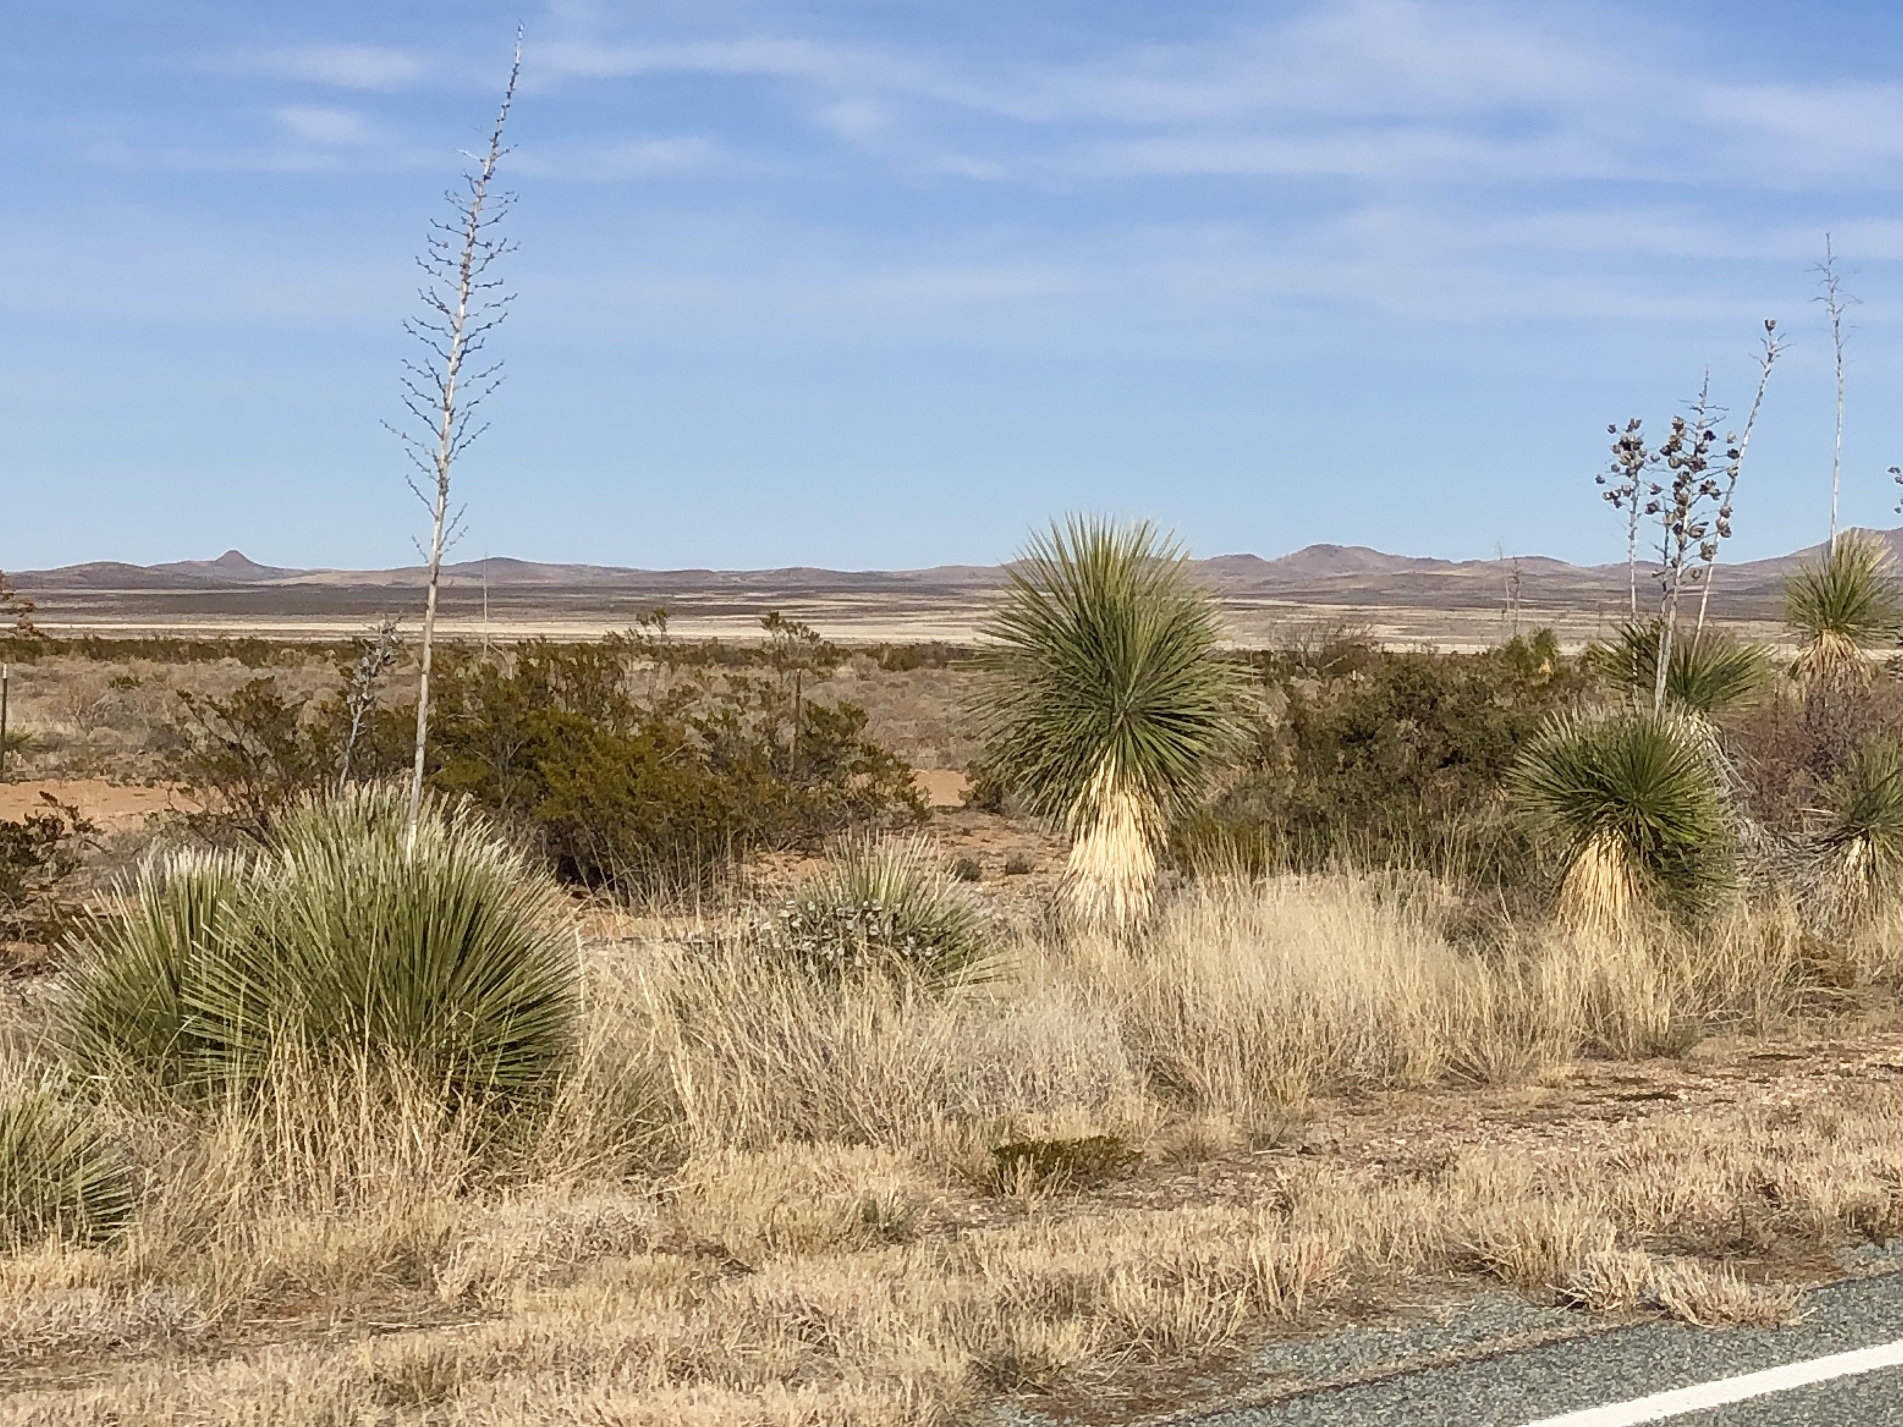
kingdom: Plantae
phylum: Tracheophyta
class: Liliopsida
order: Asparagales
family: Asparagaceae
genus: Yucca
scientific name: Yucca elata
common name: Palmella
